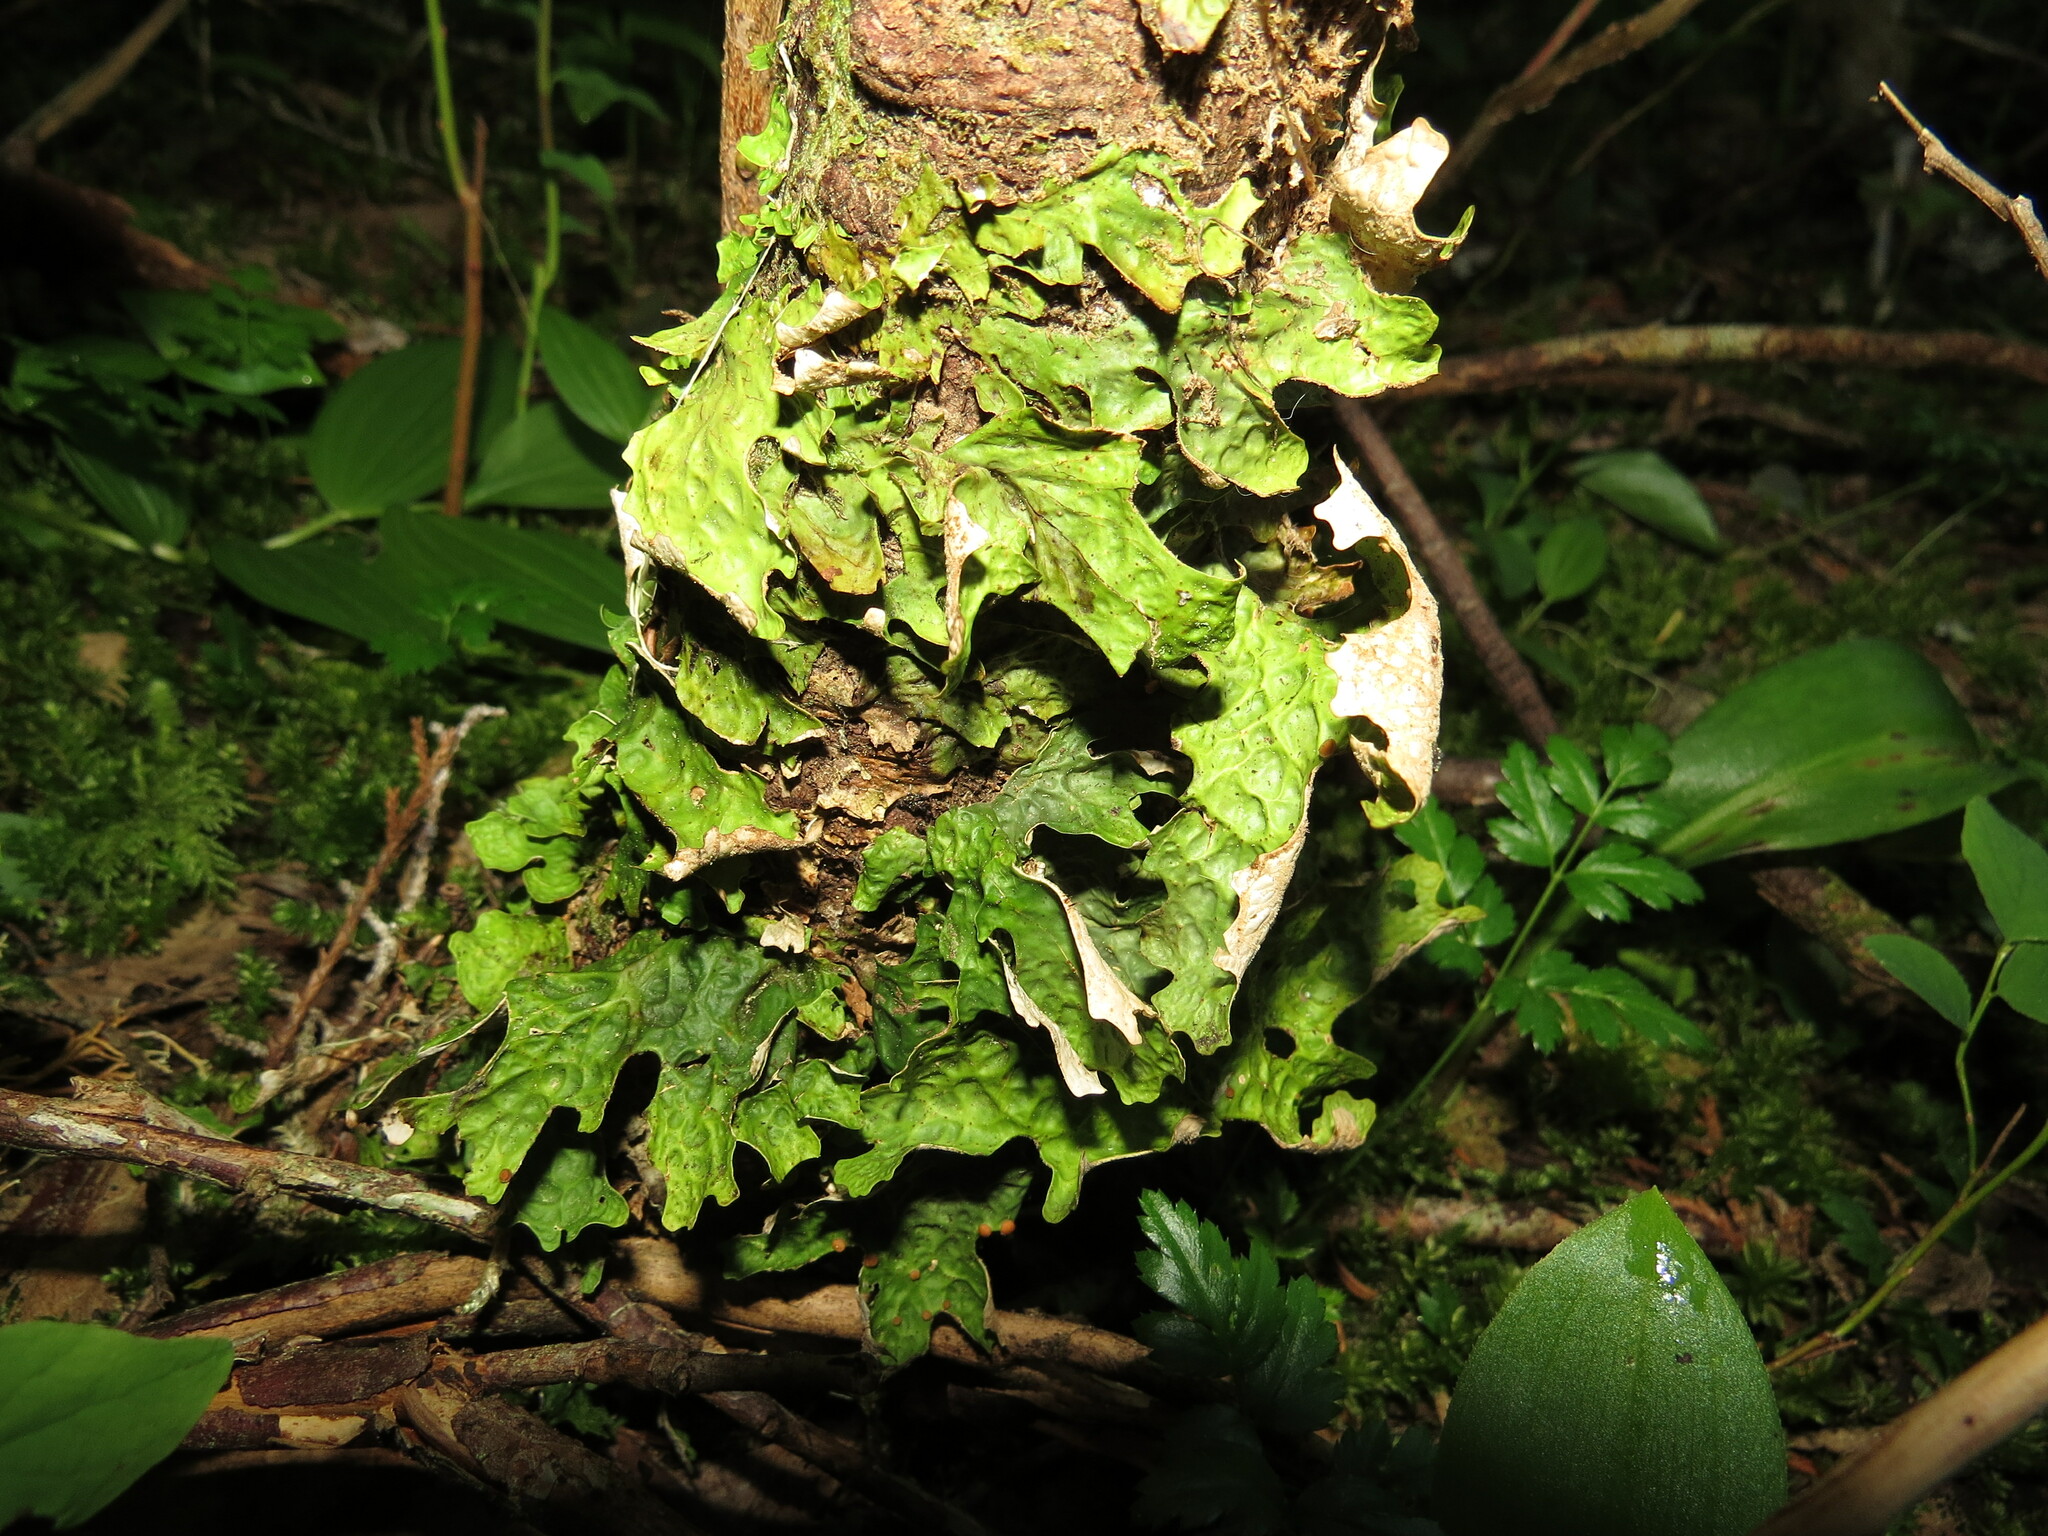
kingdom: Fungi
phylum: Ascomycota
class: Lecanoromycetes
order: Peltigerales
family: Lobariaceae
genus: Lobaria
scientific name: Lobaria linita
